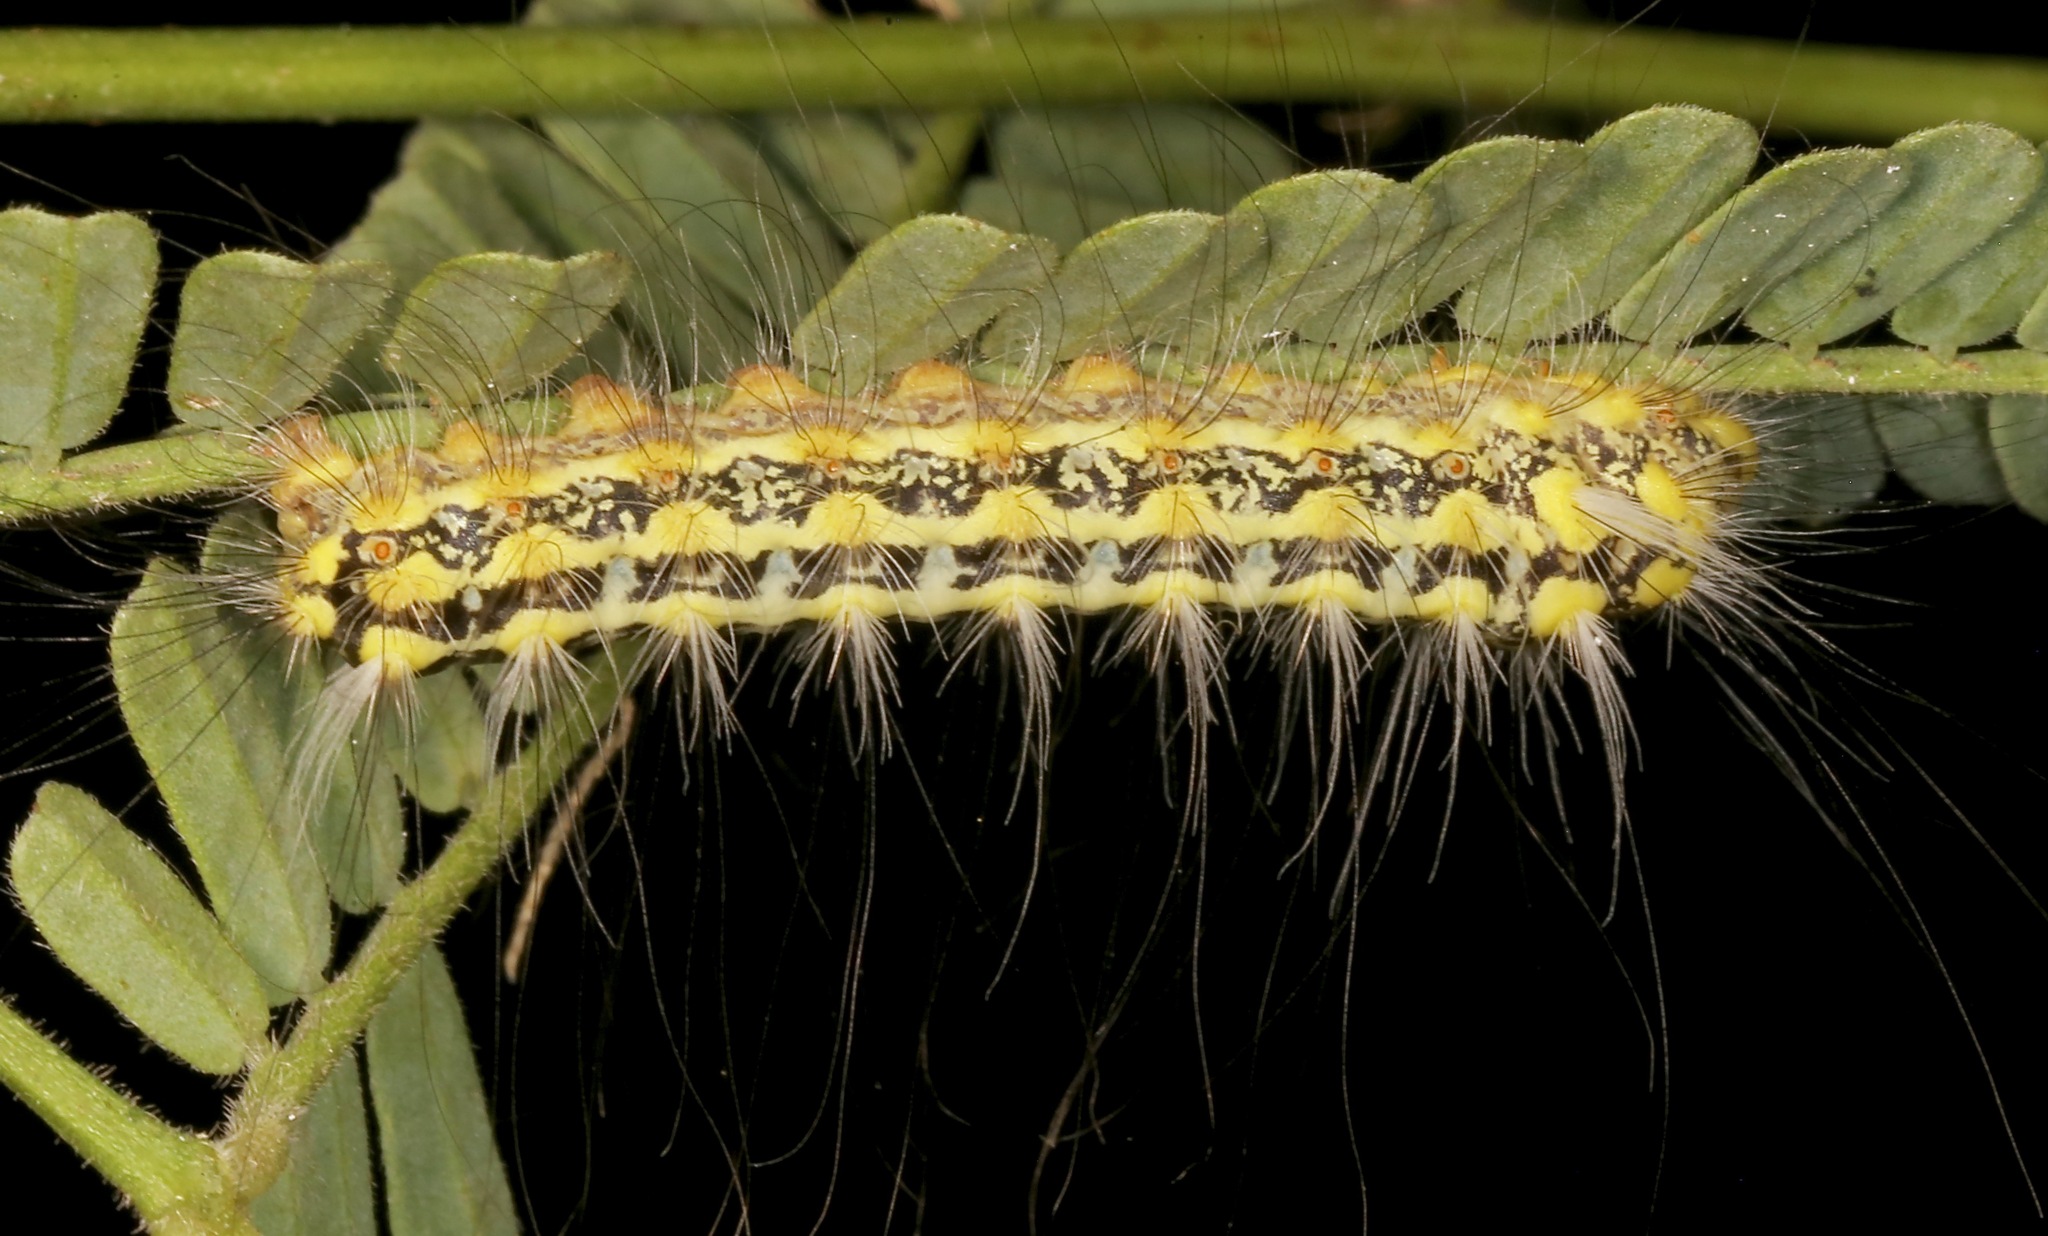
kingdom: Animalia
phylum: Arthropoda
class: Insecta
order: Lepidoptera
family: Megalopygidae
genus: Norape
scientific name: Norape tener
